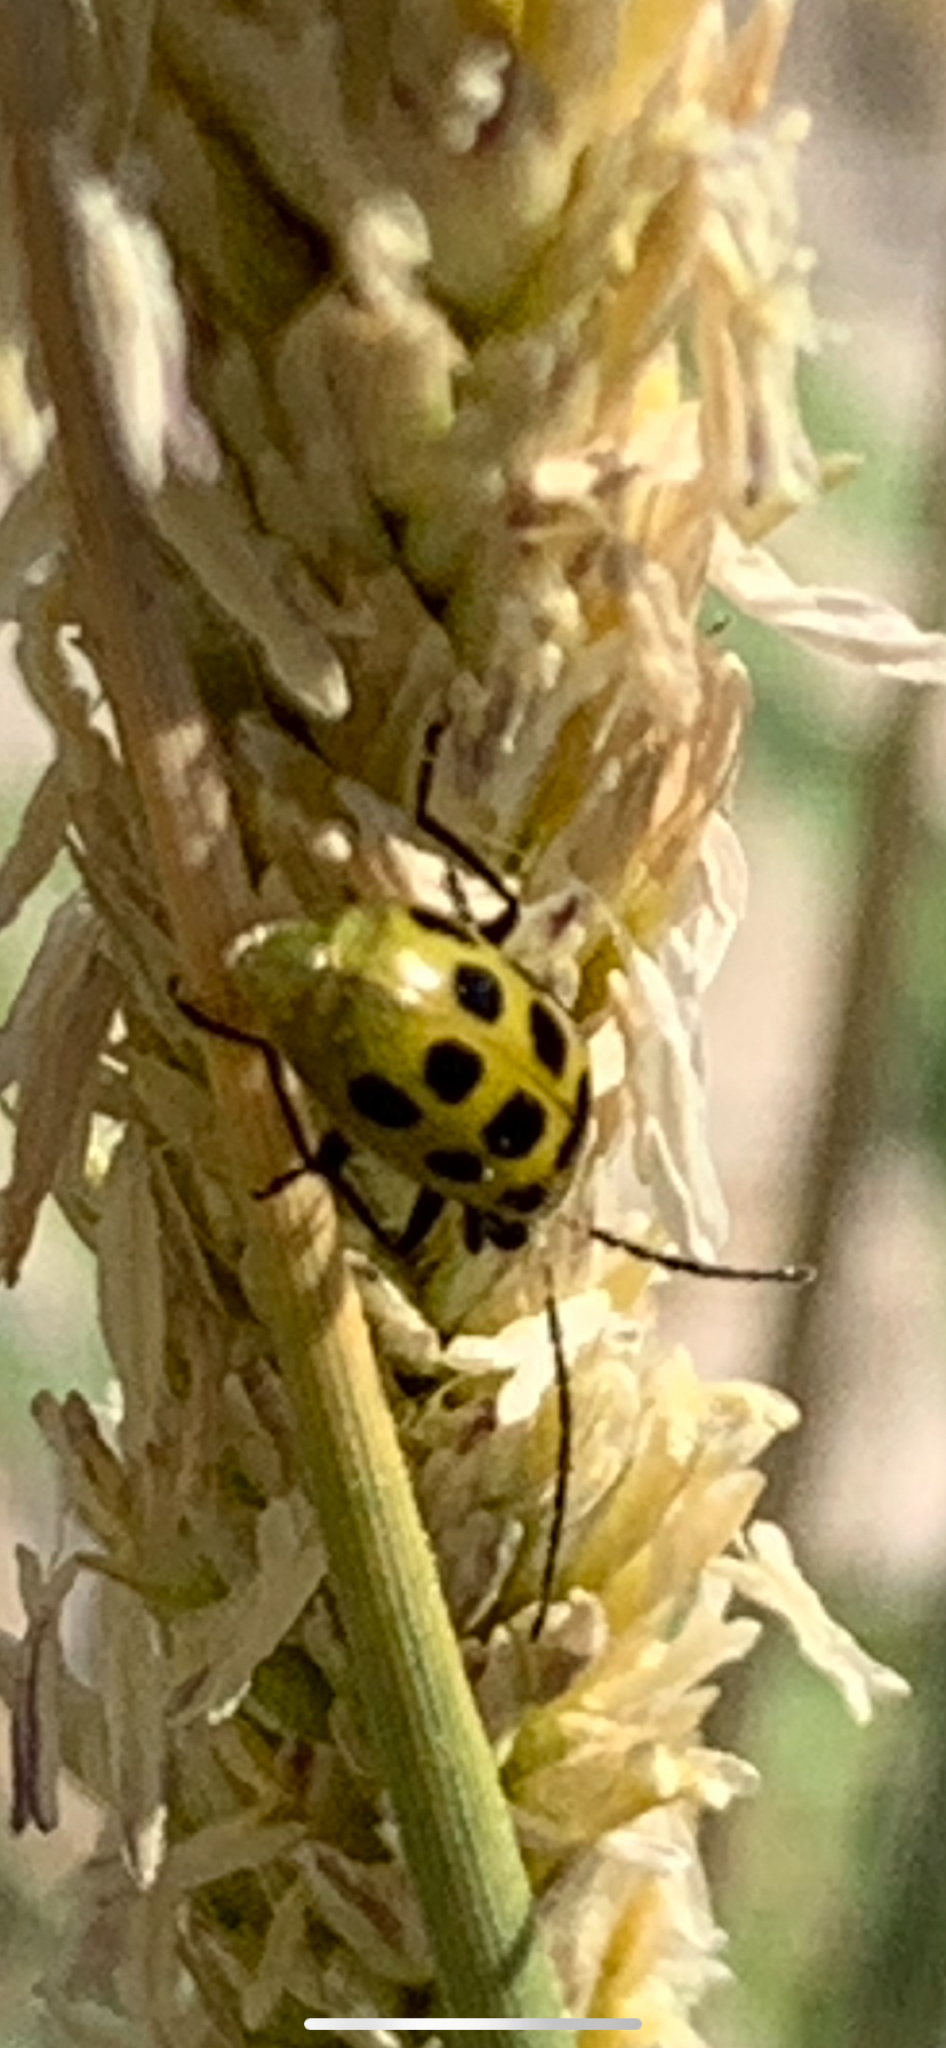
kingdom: Animalia
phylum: Arthropoda
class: Insecta
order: Coleoptera
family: Chrysomelidae
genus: Diabrotica
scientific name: Diabrotica undecimpunctata
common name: Spotted cucumber beetle
